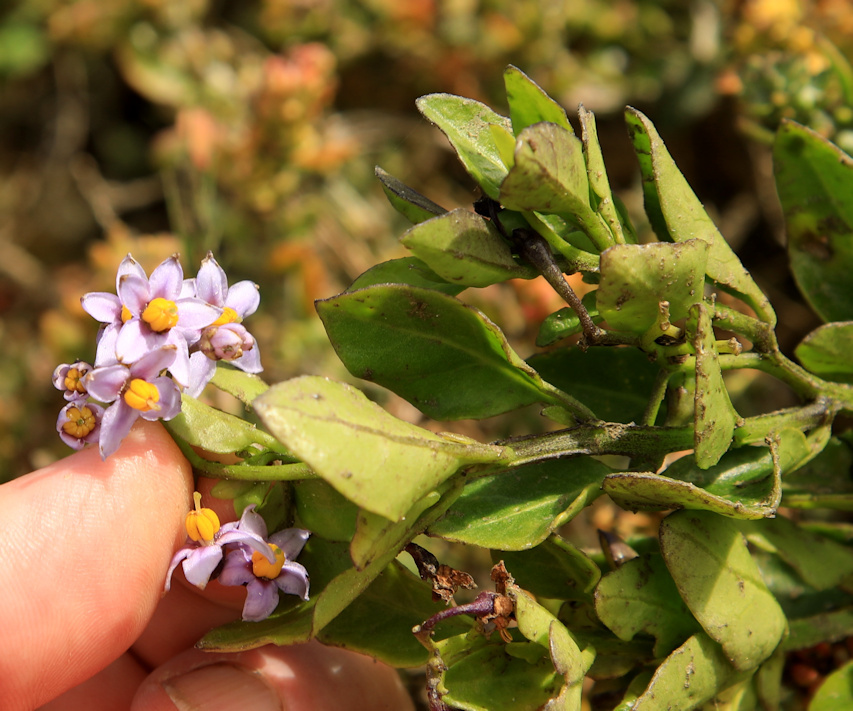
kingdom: Plantae
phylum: Tracheophyta
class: Magnoliopsida
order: Solanales
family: Solanaceae
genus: Solanum
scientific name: Solanum africanum
